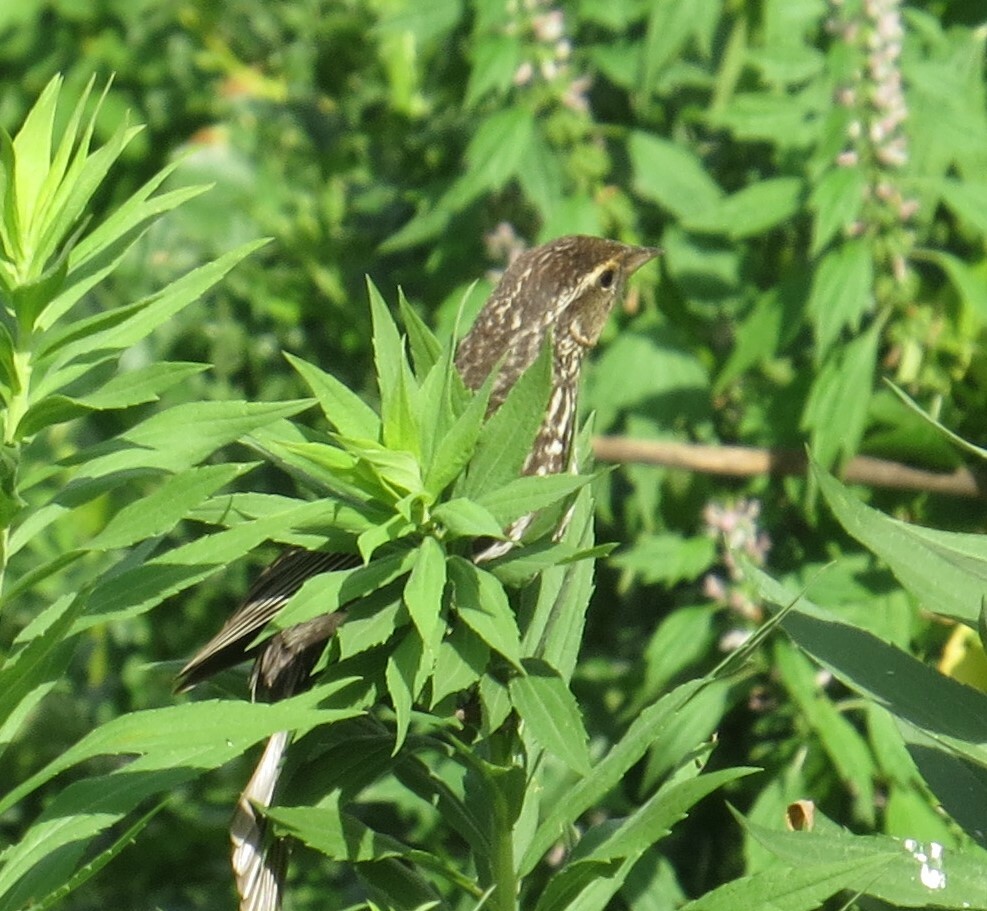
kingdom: Animalia
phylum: Chordata
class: Aves
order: Passeriformes
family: Icteridae
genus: Agelaius
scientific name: Agelaius phoeniceus
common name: Red-winged blackbird
